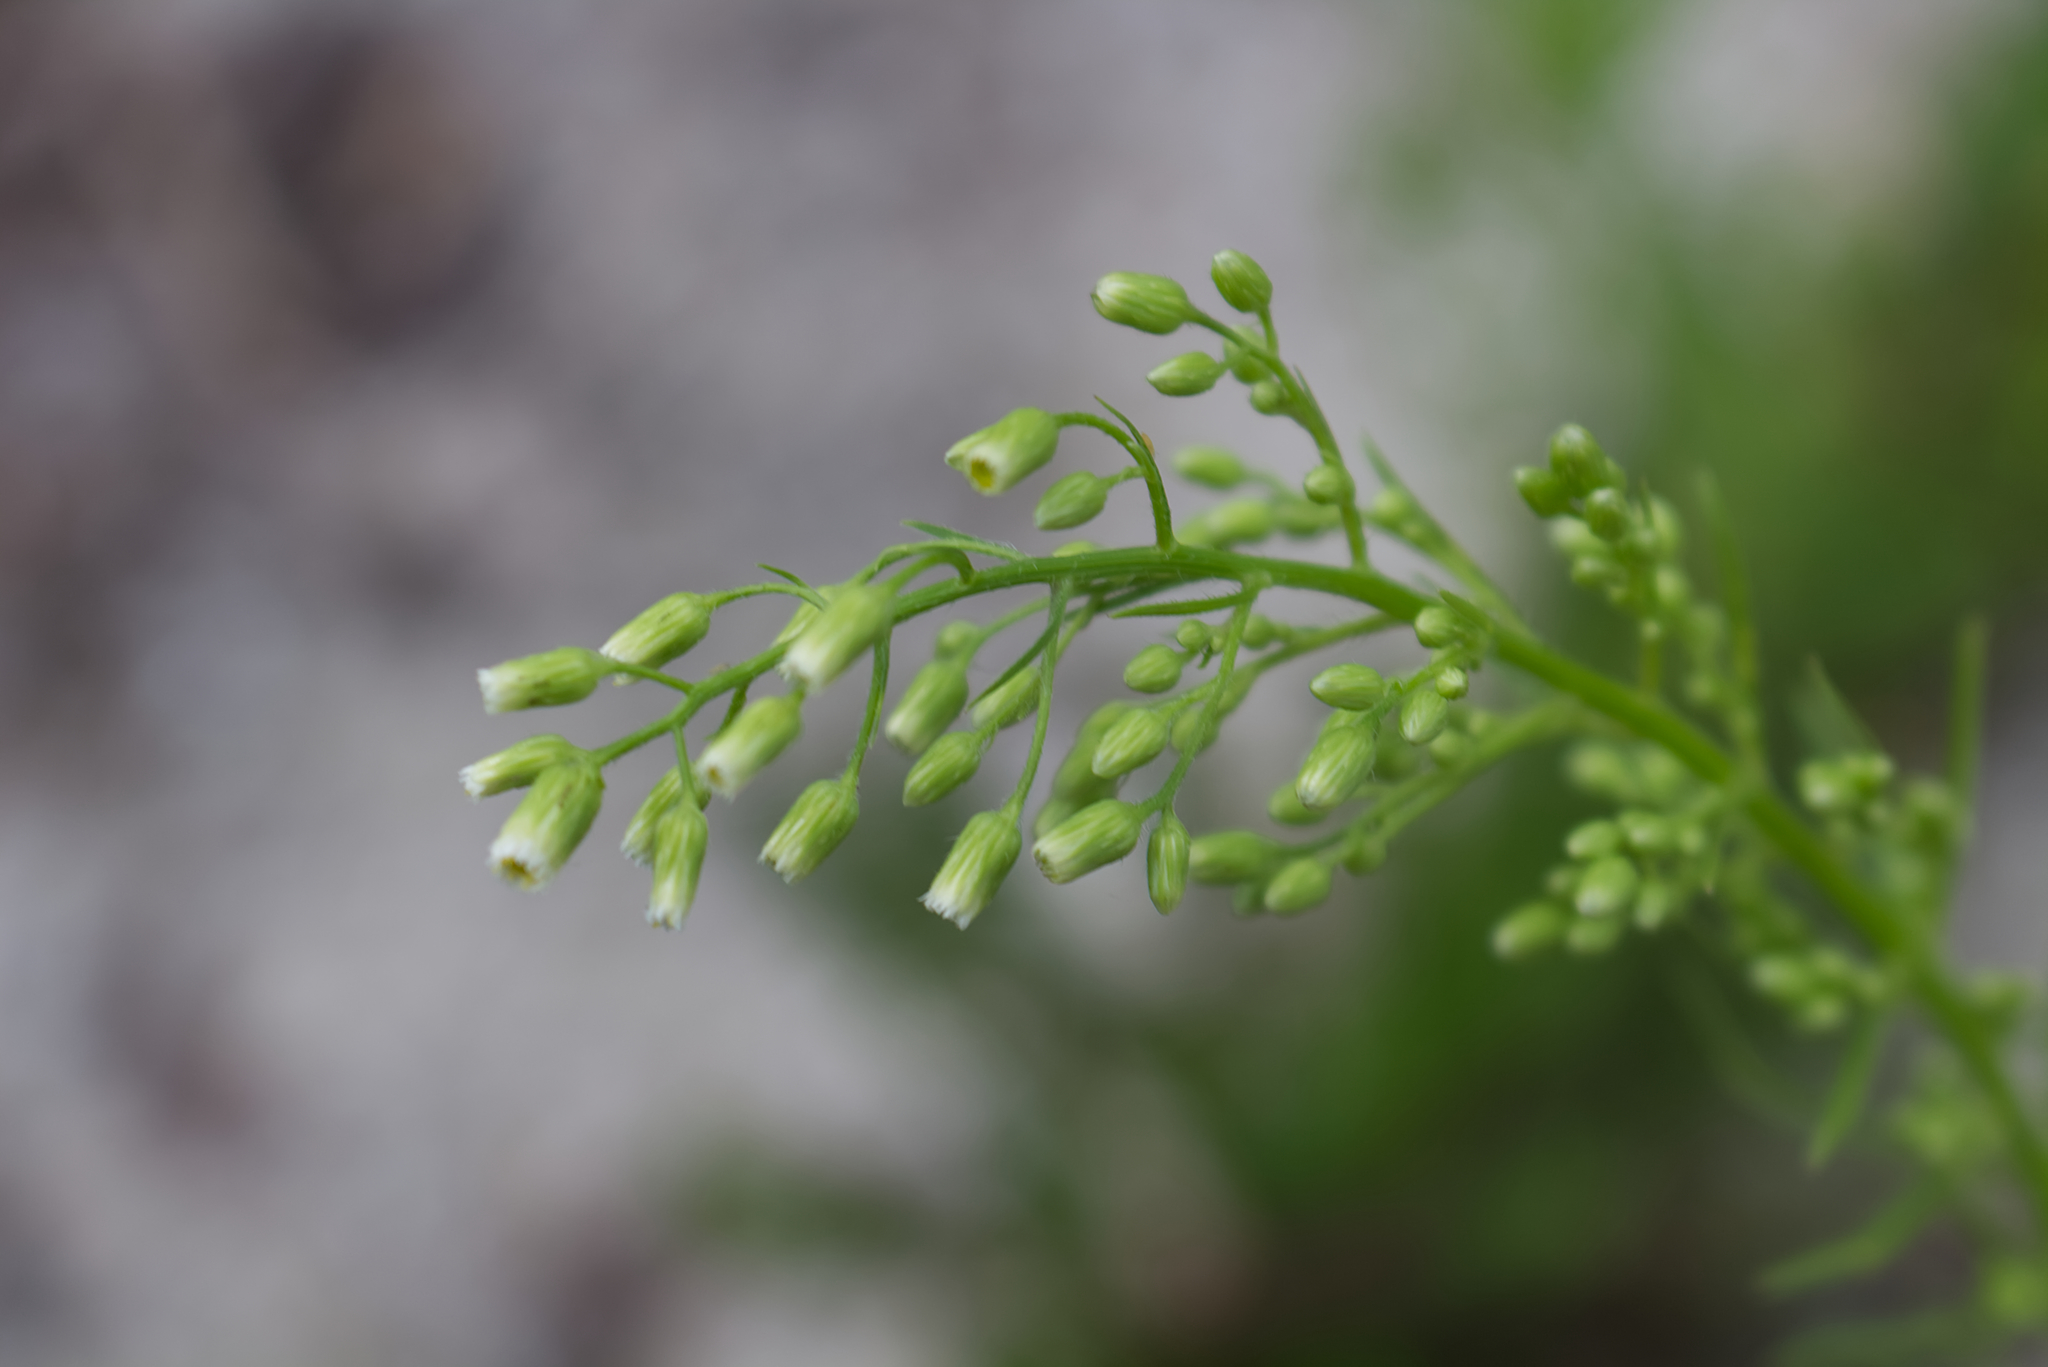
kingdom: Plantae
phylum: Tracheophyta
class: Magnoliopsida
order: Asterales
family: Asteraceae
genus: Erigeron
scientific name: Erigeron canadensis
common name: Canadian fleabane
